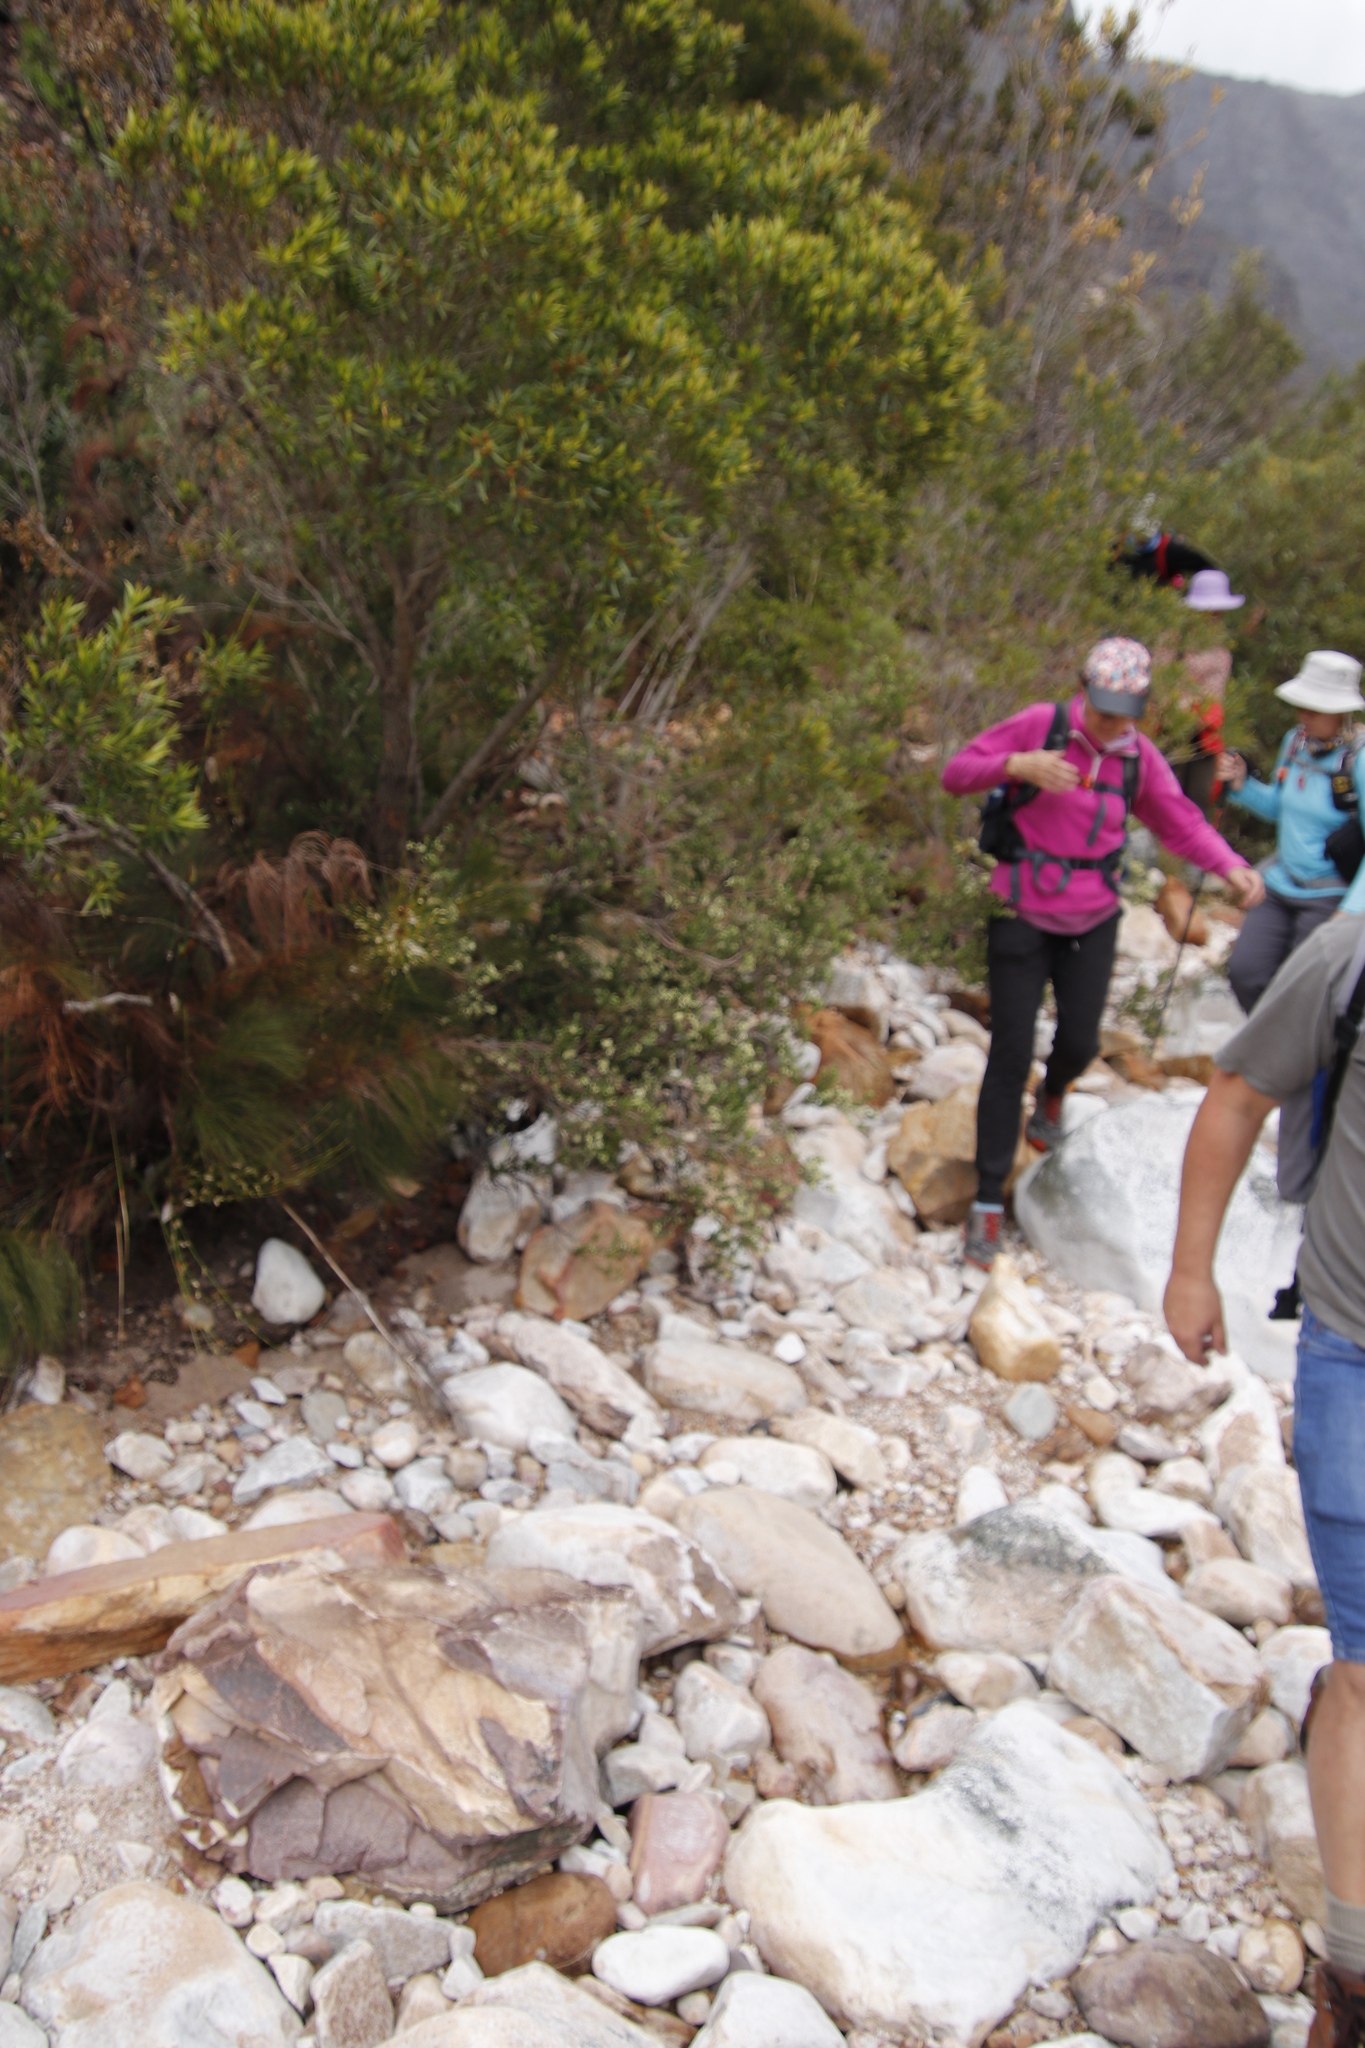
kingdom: Plantae
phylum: Tracheophyta
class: Magnoliopsida
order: Ericales
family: Ericaceae
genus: Erica
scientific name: Erica caffra
